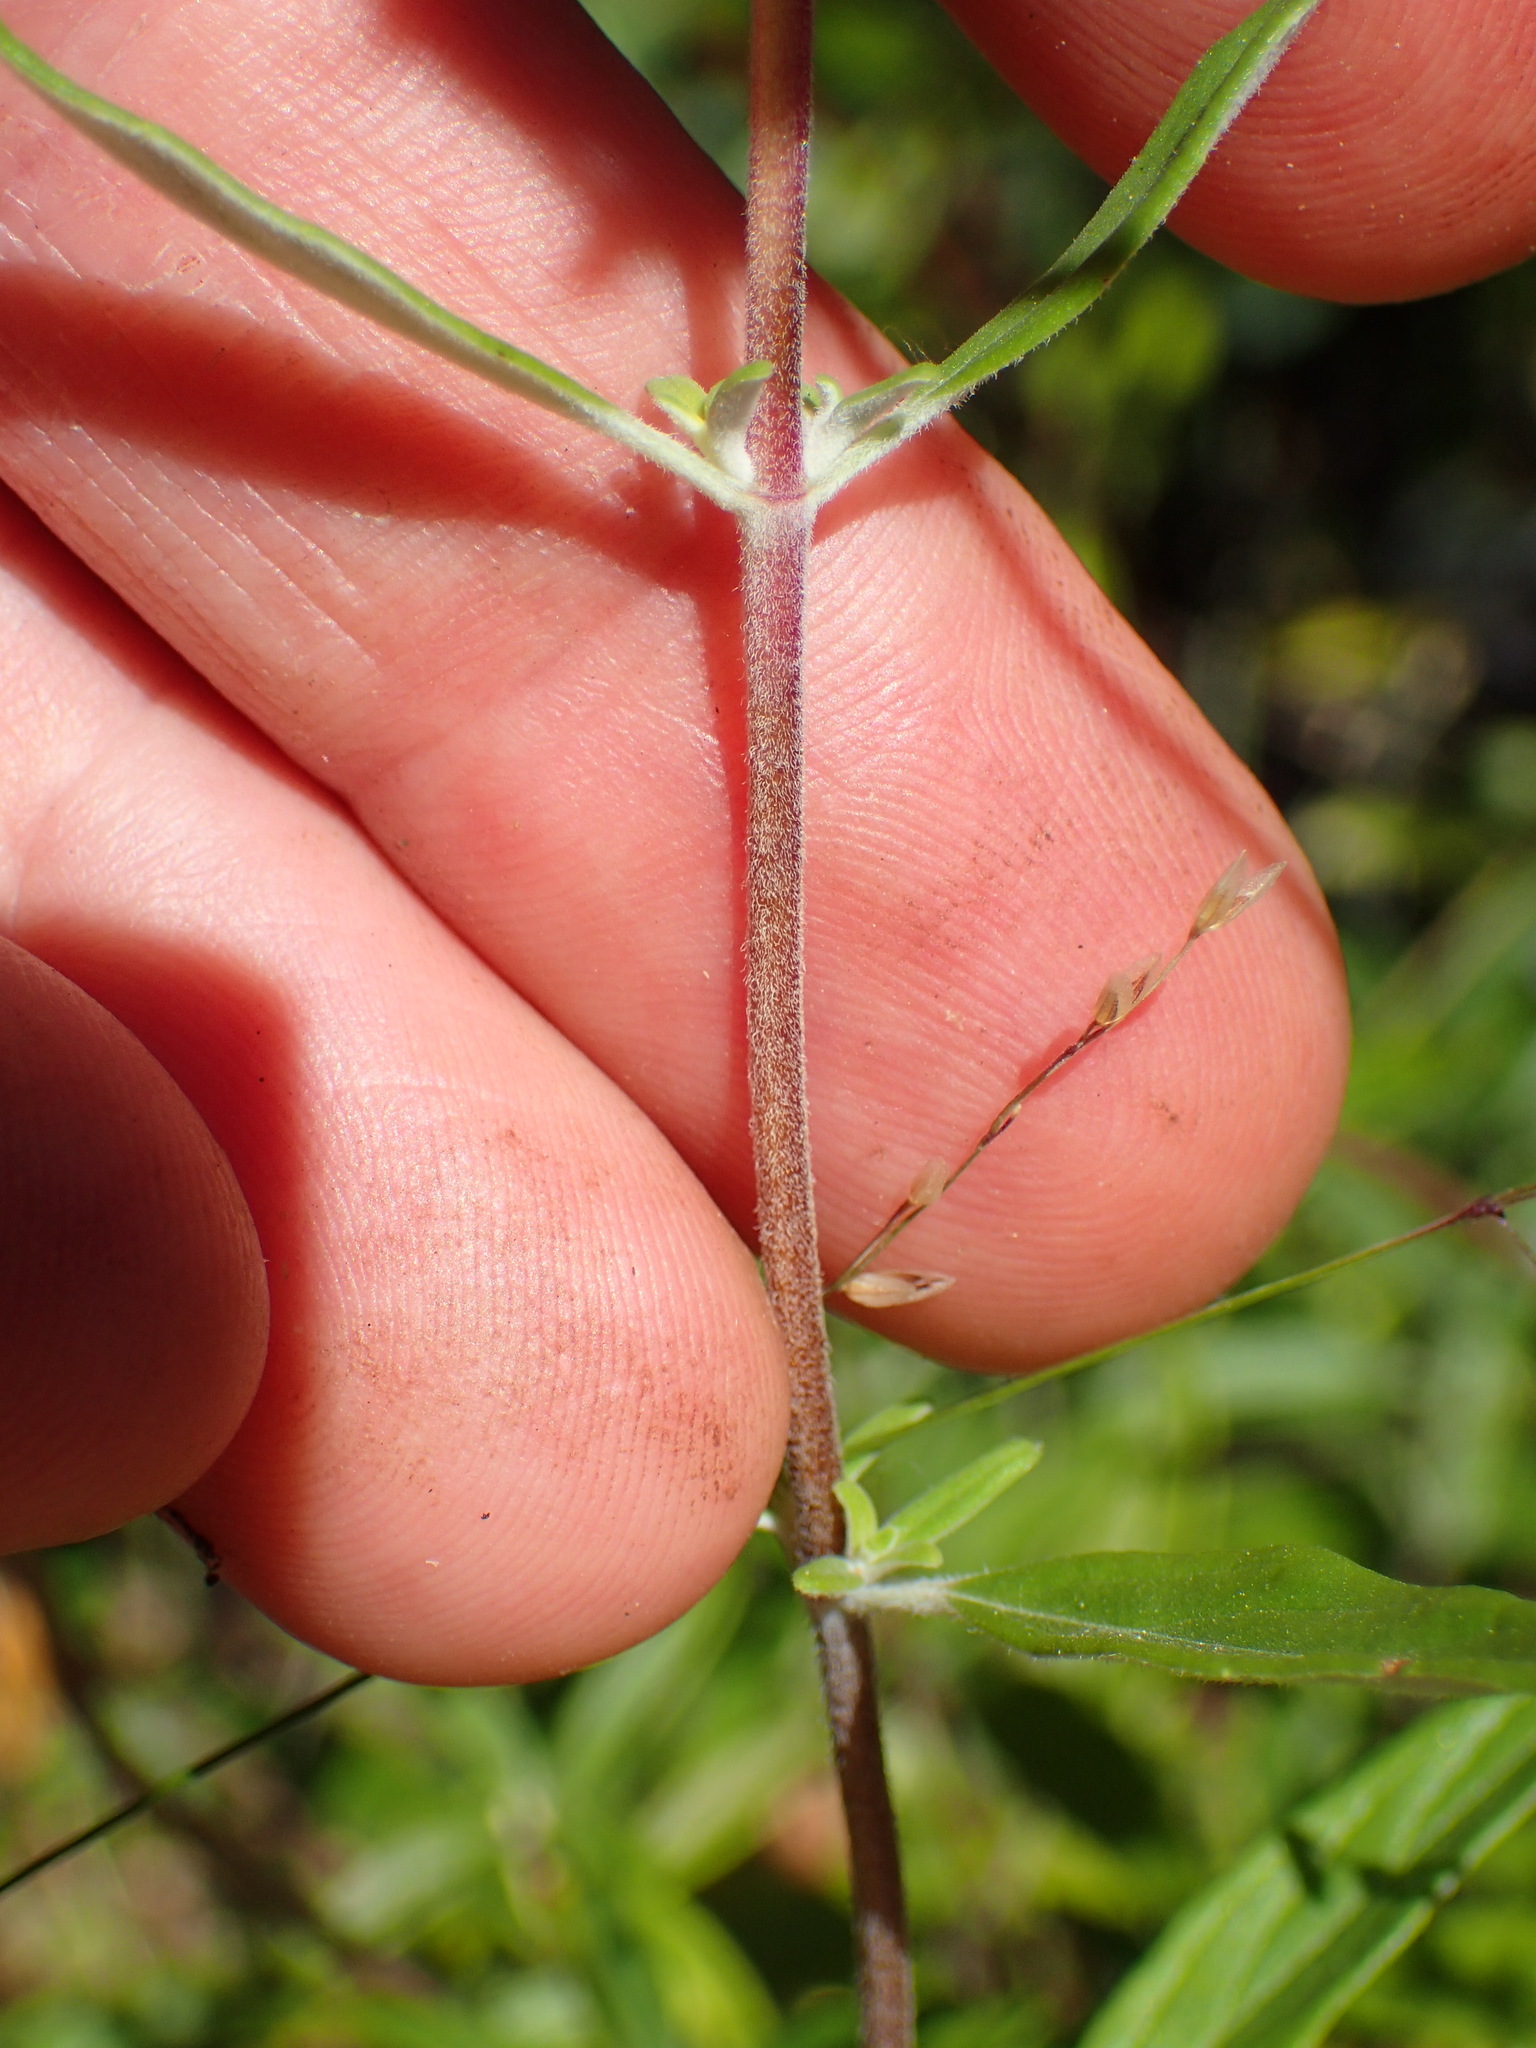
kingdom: Plantae
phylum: Tracheophyta
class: Magnoliopsida
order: Lamiales
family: Lamiaceae
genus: Monardella
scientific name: Monardella hypoleuca
